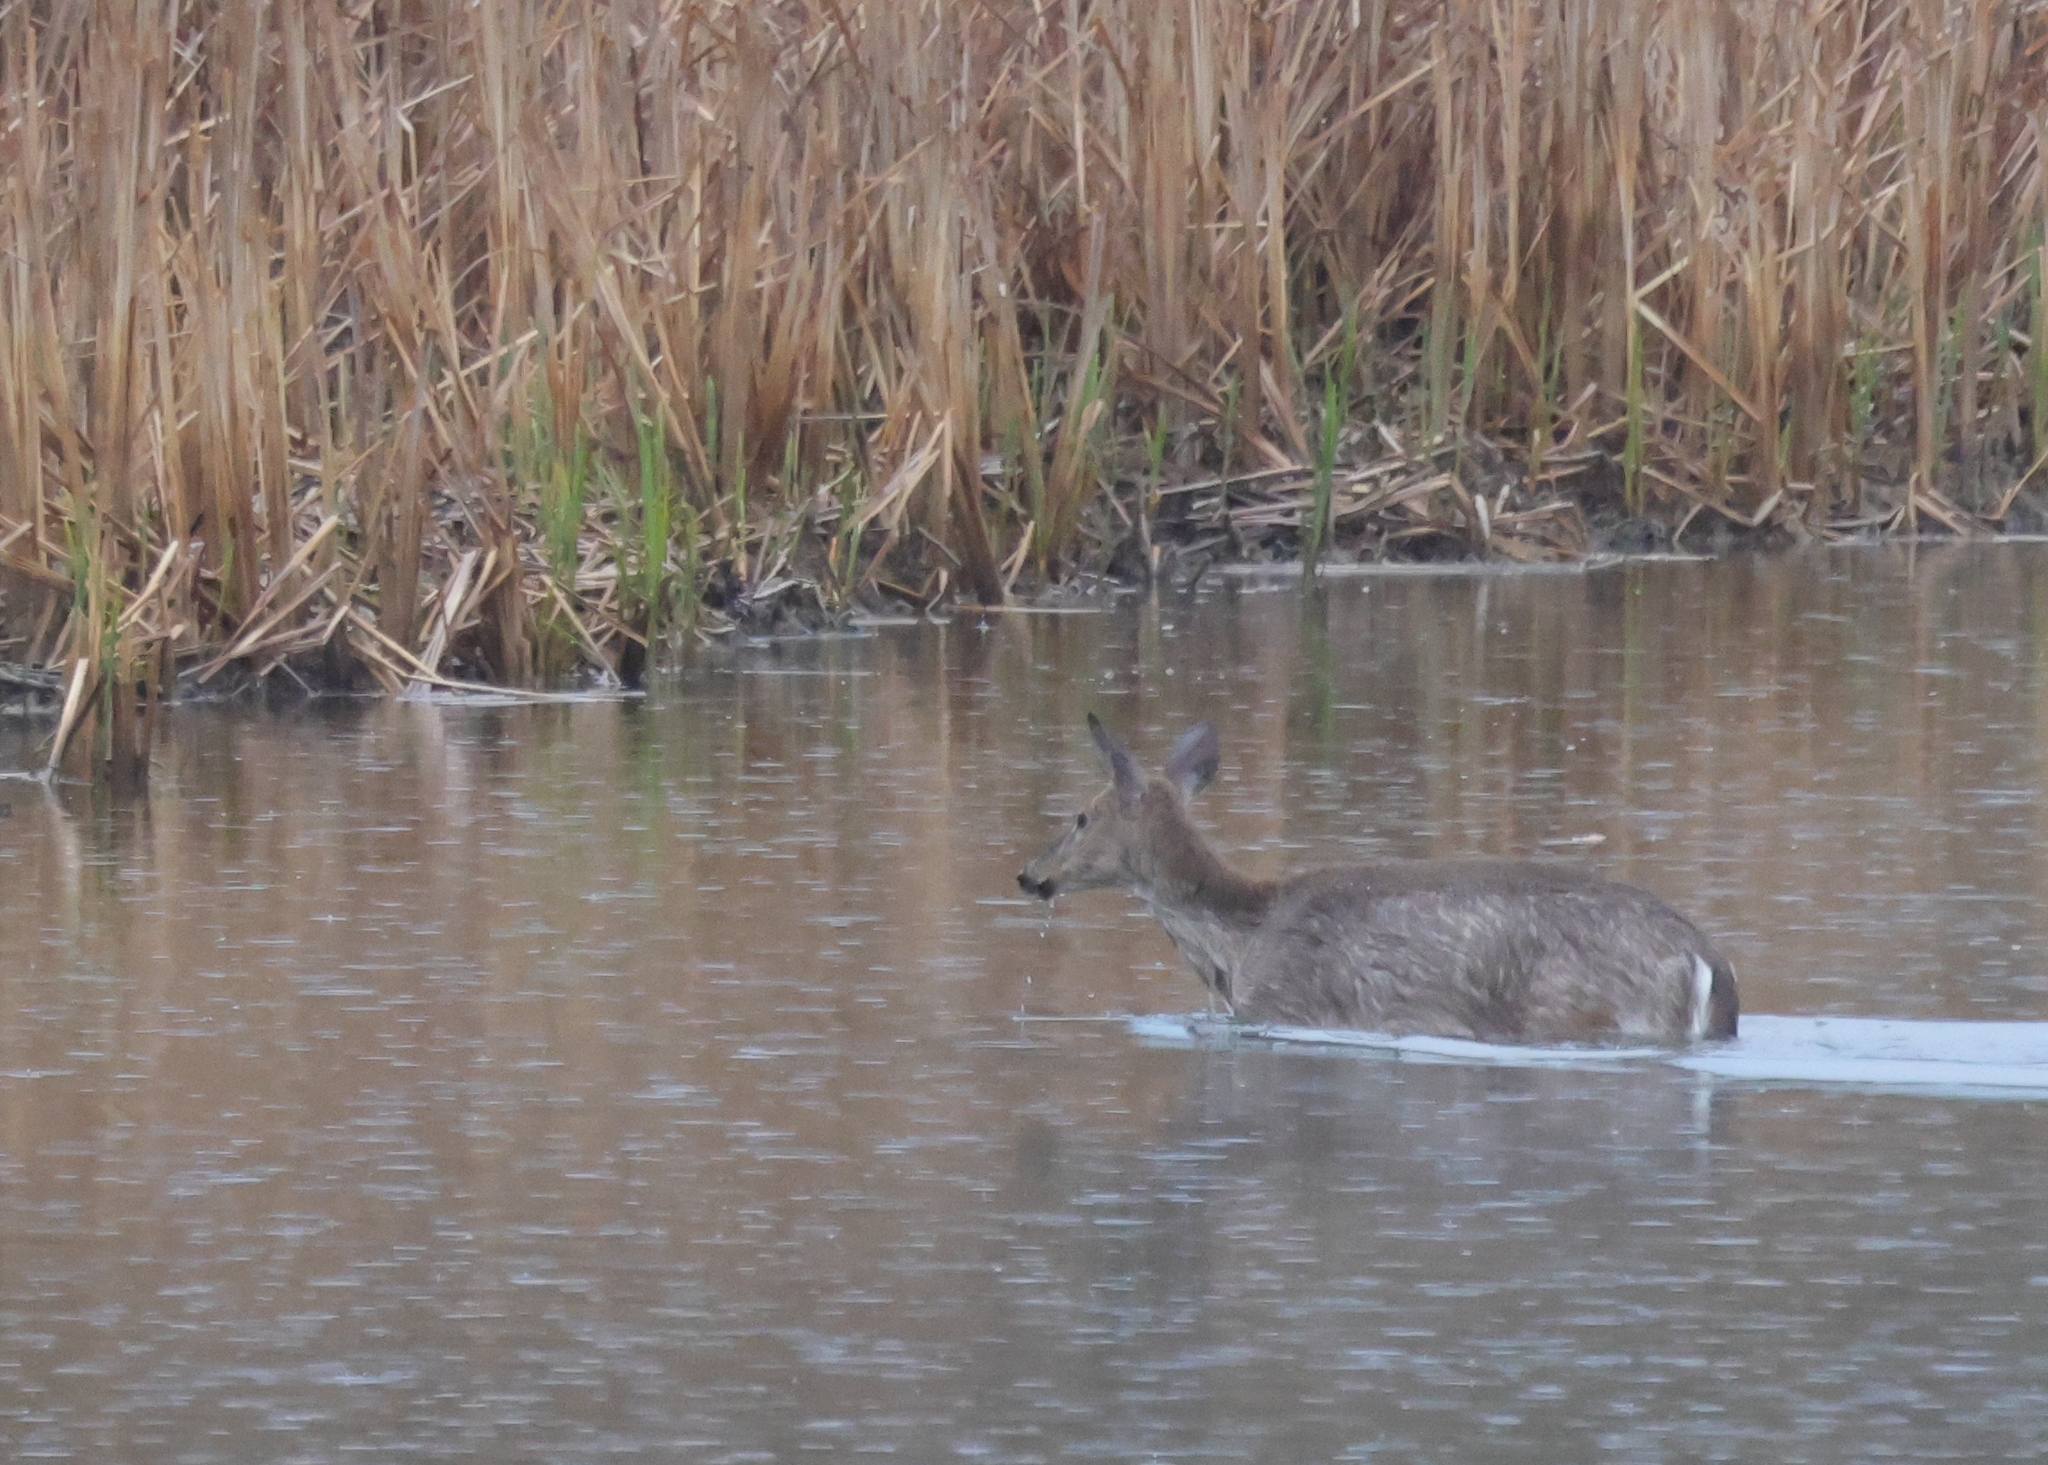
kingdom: Animalia
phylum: Chordata
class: Mammalia
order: Artiodactyla
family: Cervidae
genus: Odocoileus
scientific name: Odocoileus virginianus
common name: White-tailed deer
